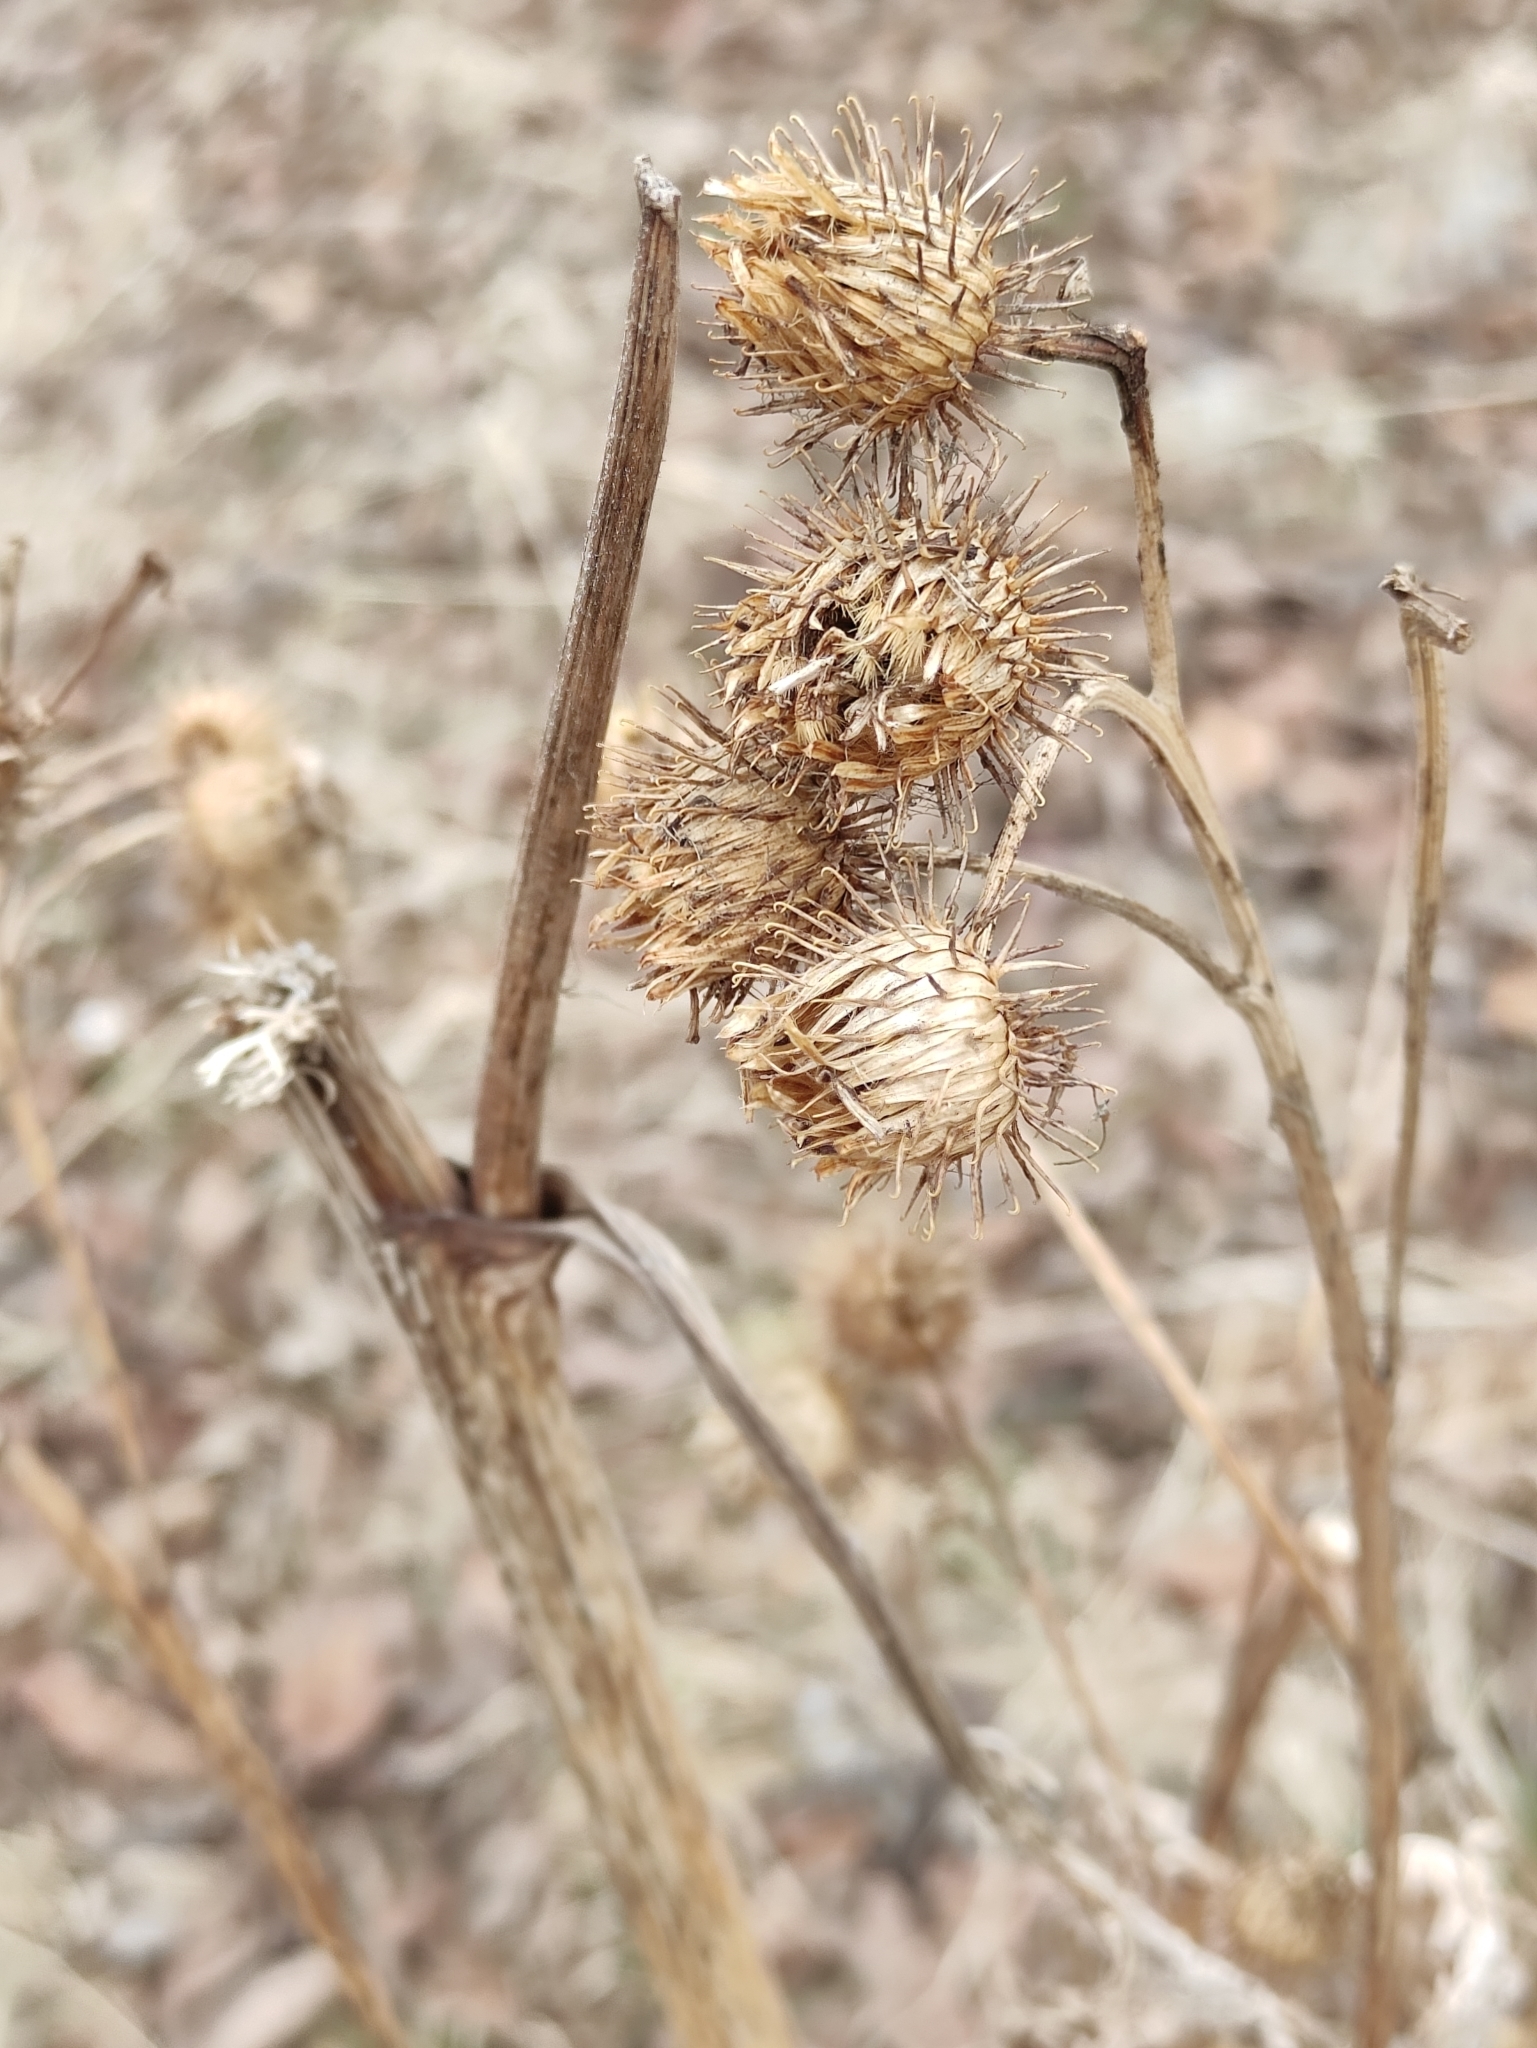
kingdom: Plantae
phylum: Tracheophyta
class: Magnoliopsida
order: Asterales
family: Asteraceae
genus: Arctium
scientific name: Arctium tomentosum
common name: Woolly burdock
